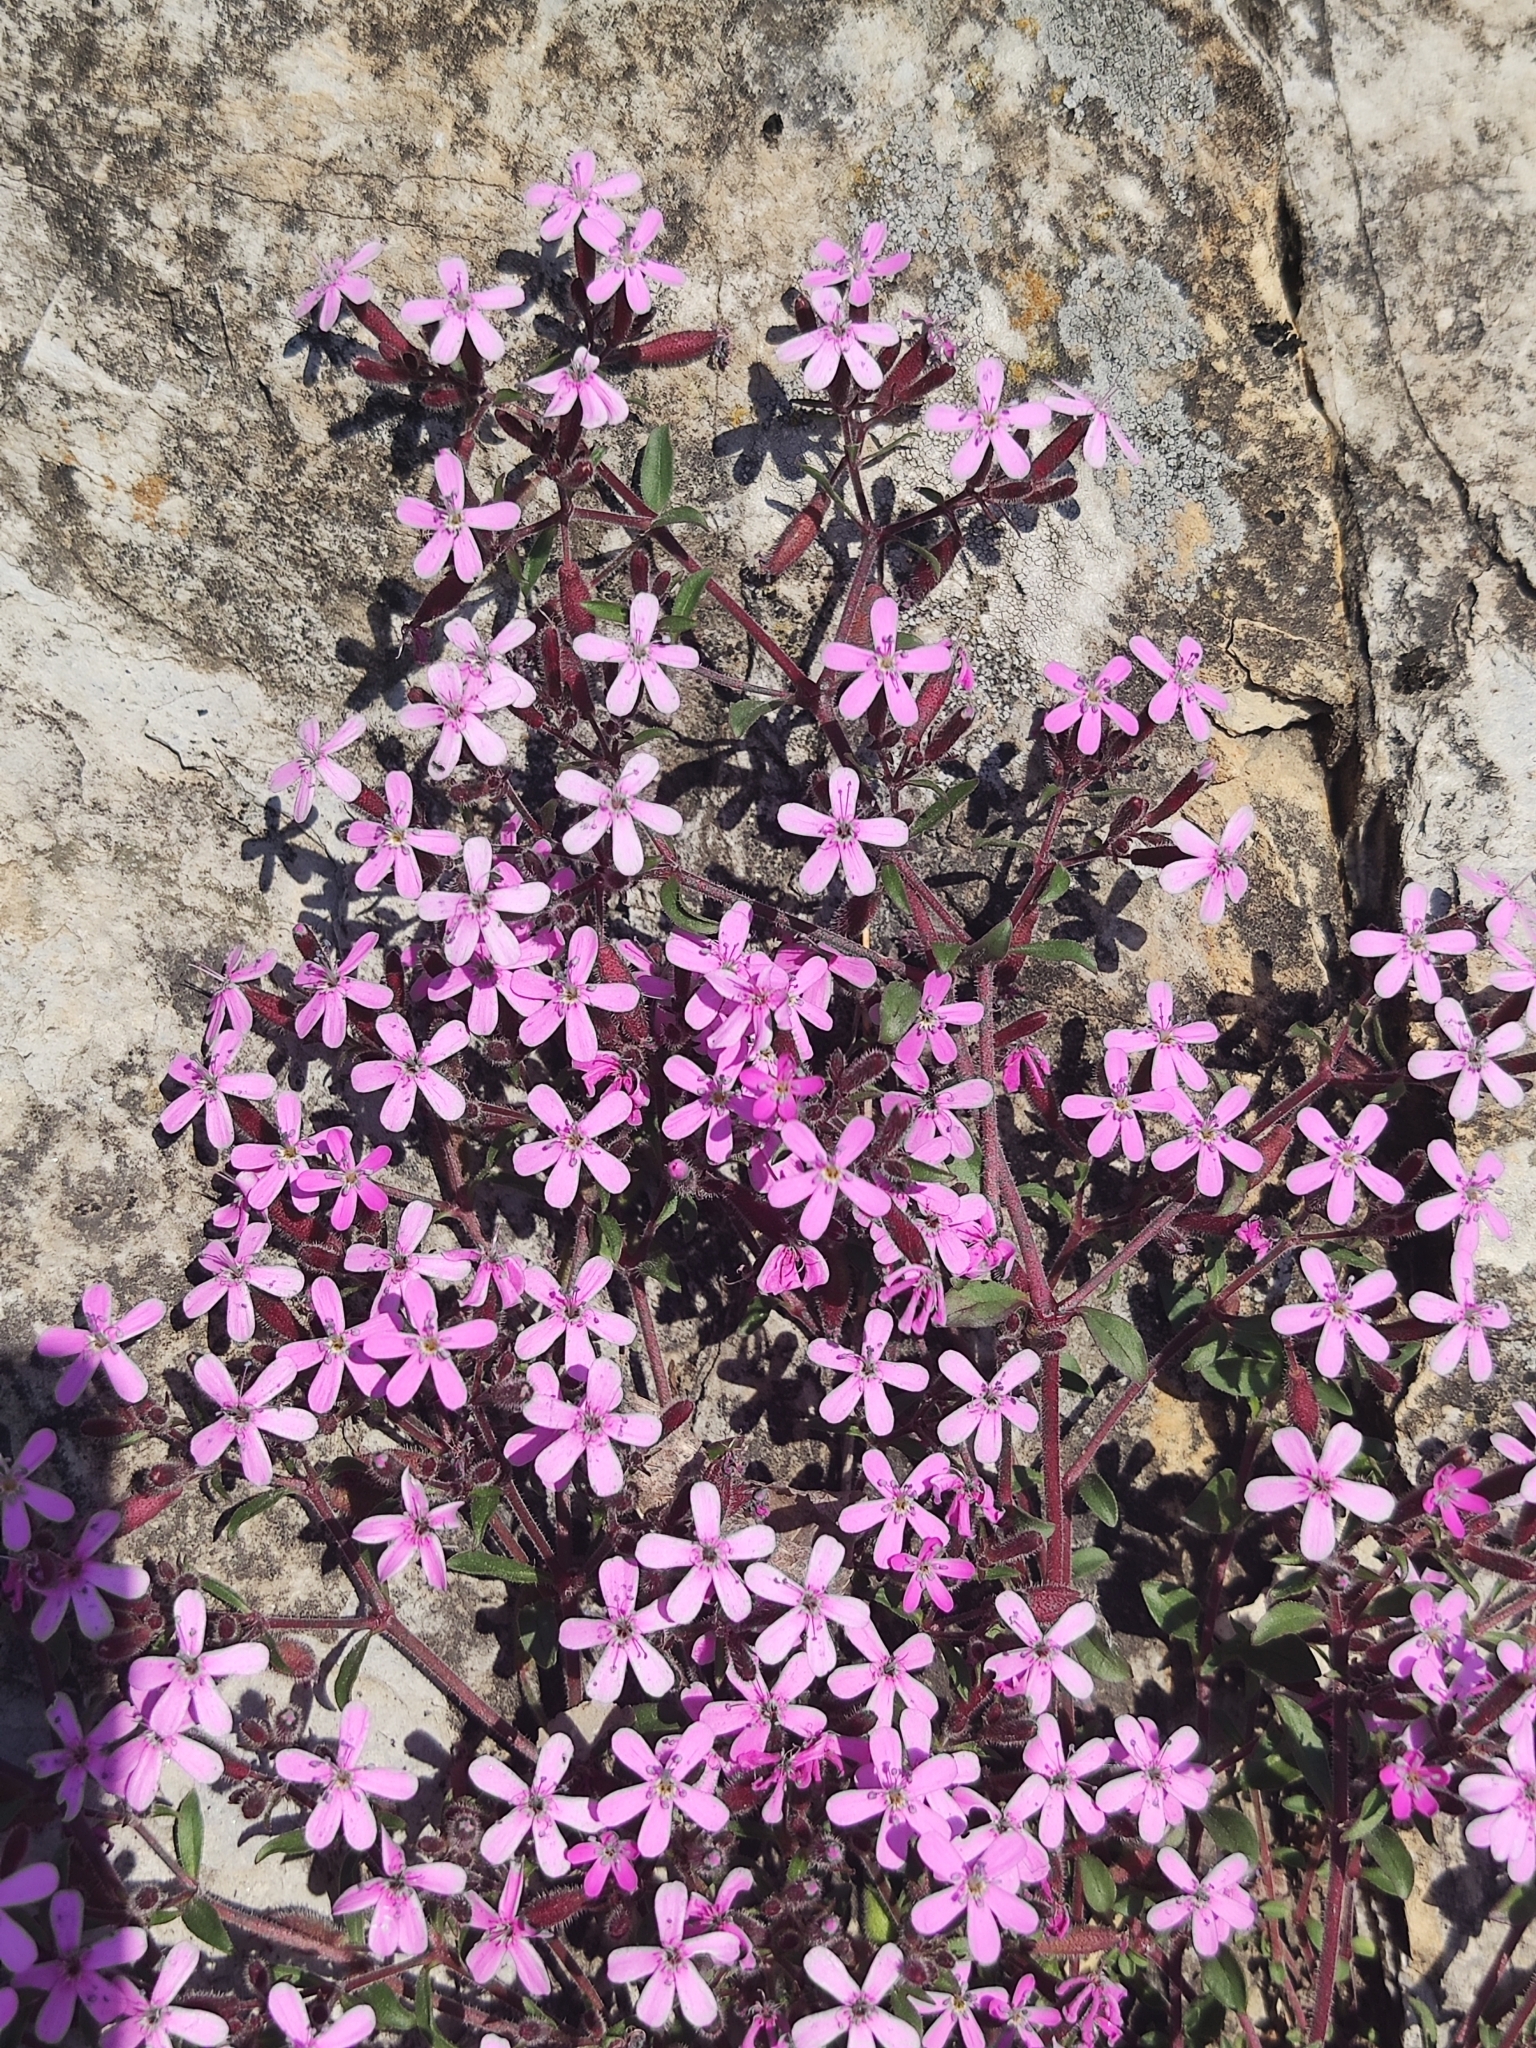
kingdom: Plantae
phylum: Tracheophyta
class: Magnoliopsida
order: Caryophyllales
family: Caryophyllaceae
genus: Saponaria
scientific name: Saponaria ocymoides
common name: Rock soapwort
